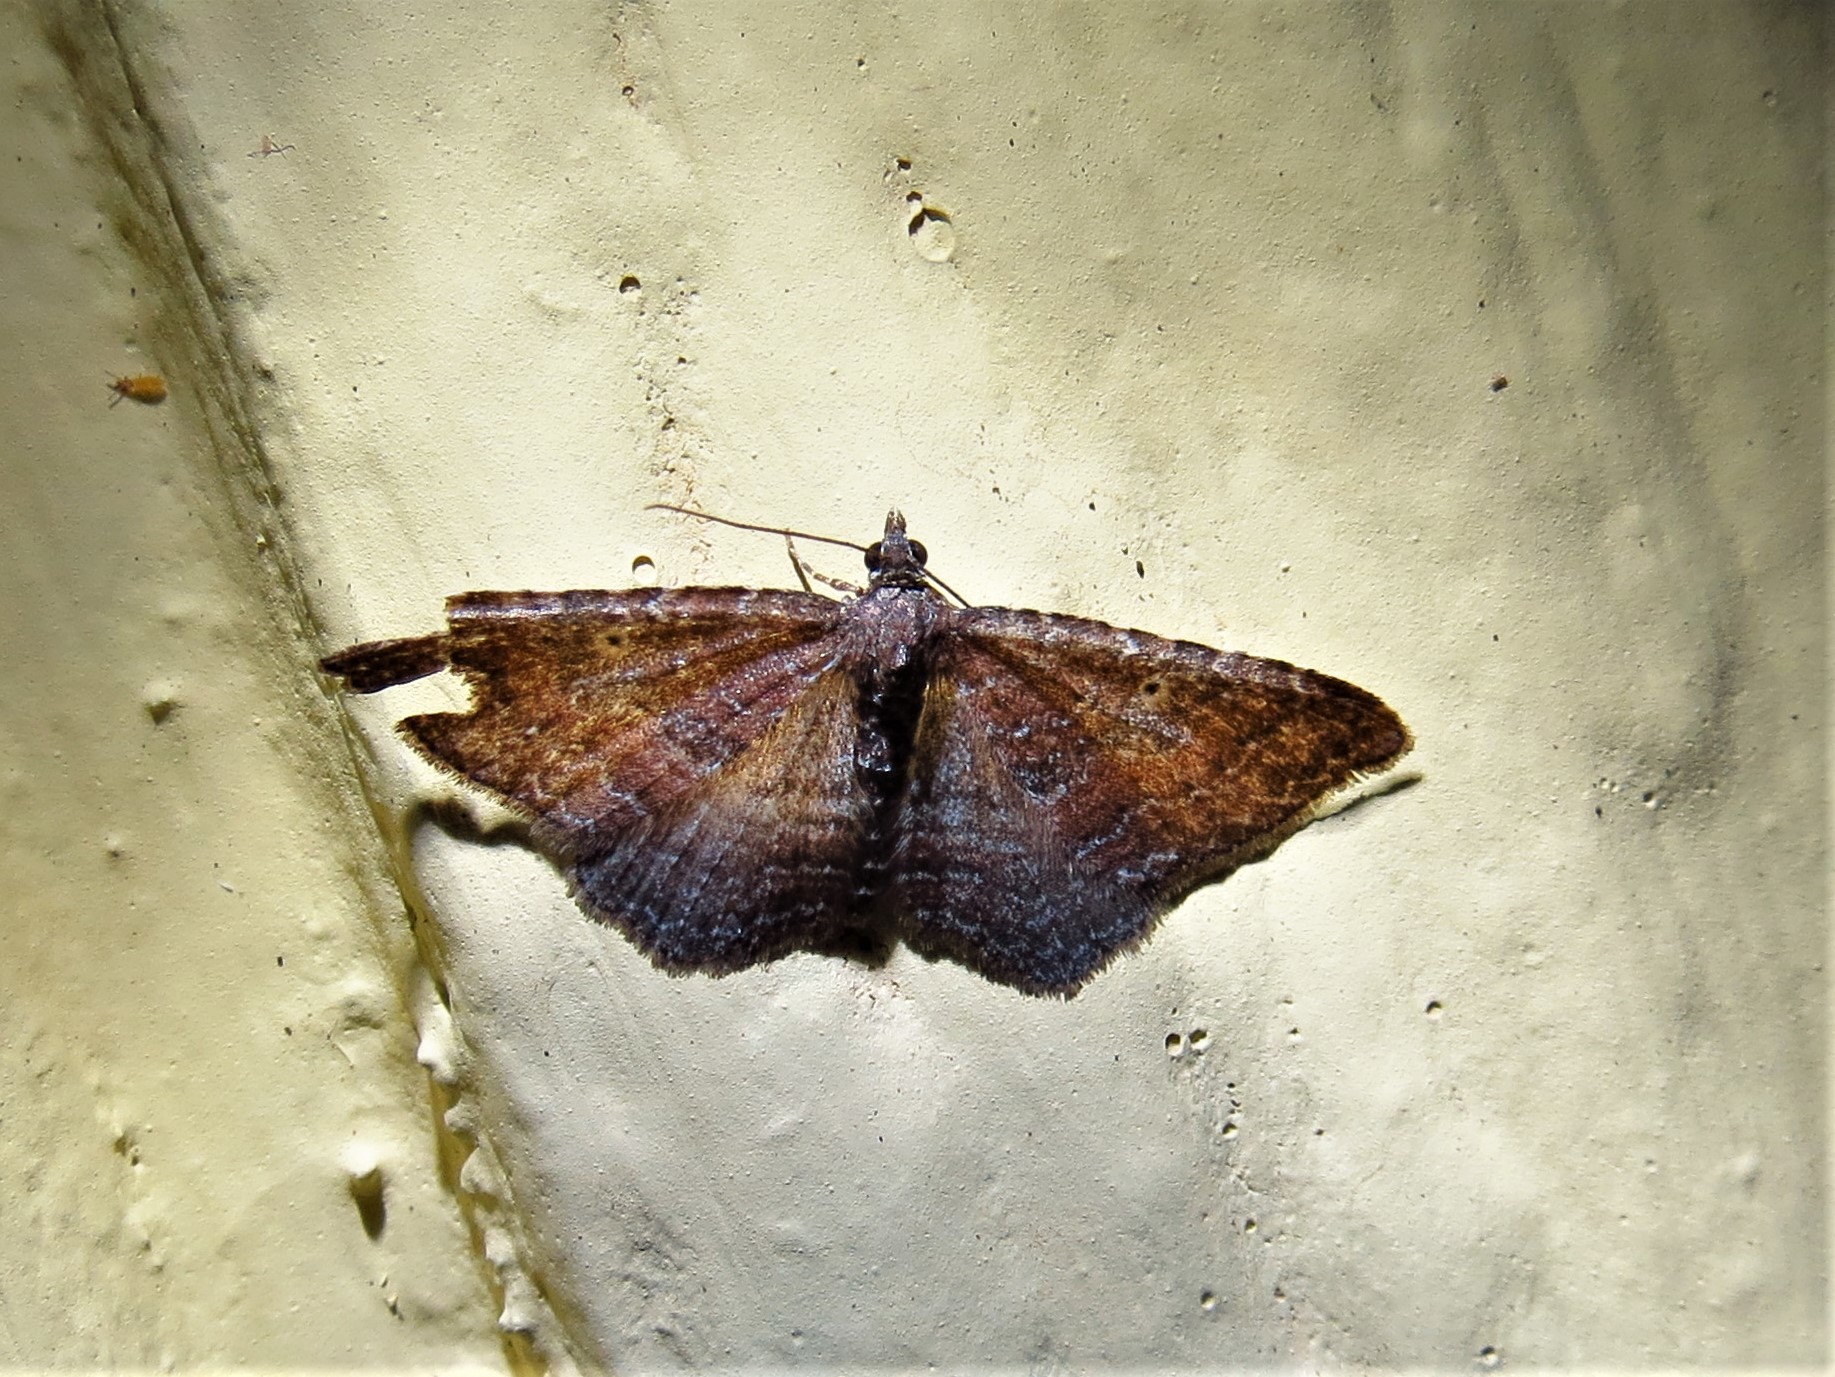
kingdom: Animalia
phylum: Arthropoda
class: Insecta
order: Lepidoptera
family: Geometridae
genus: Orthonama
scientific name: Orthonama obstipata
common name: The gem
